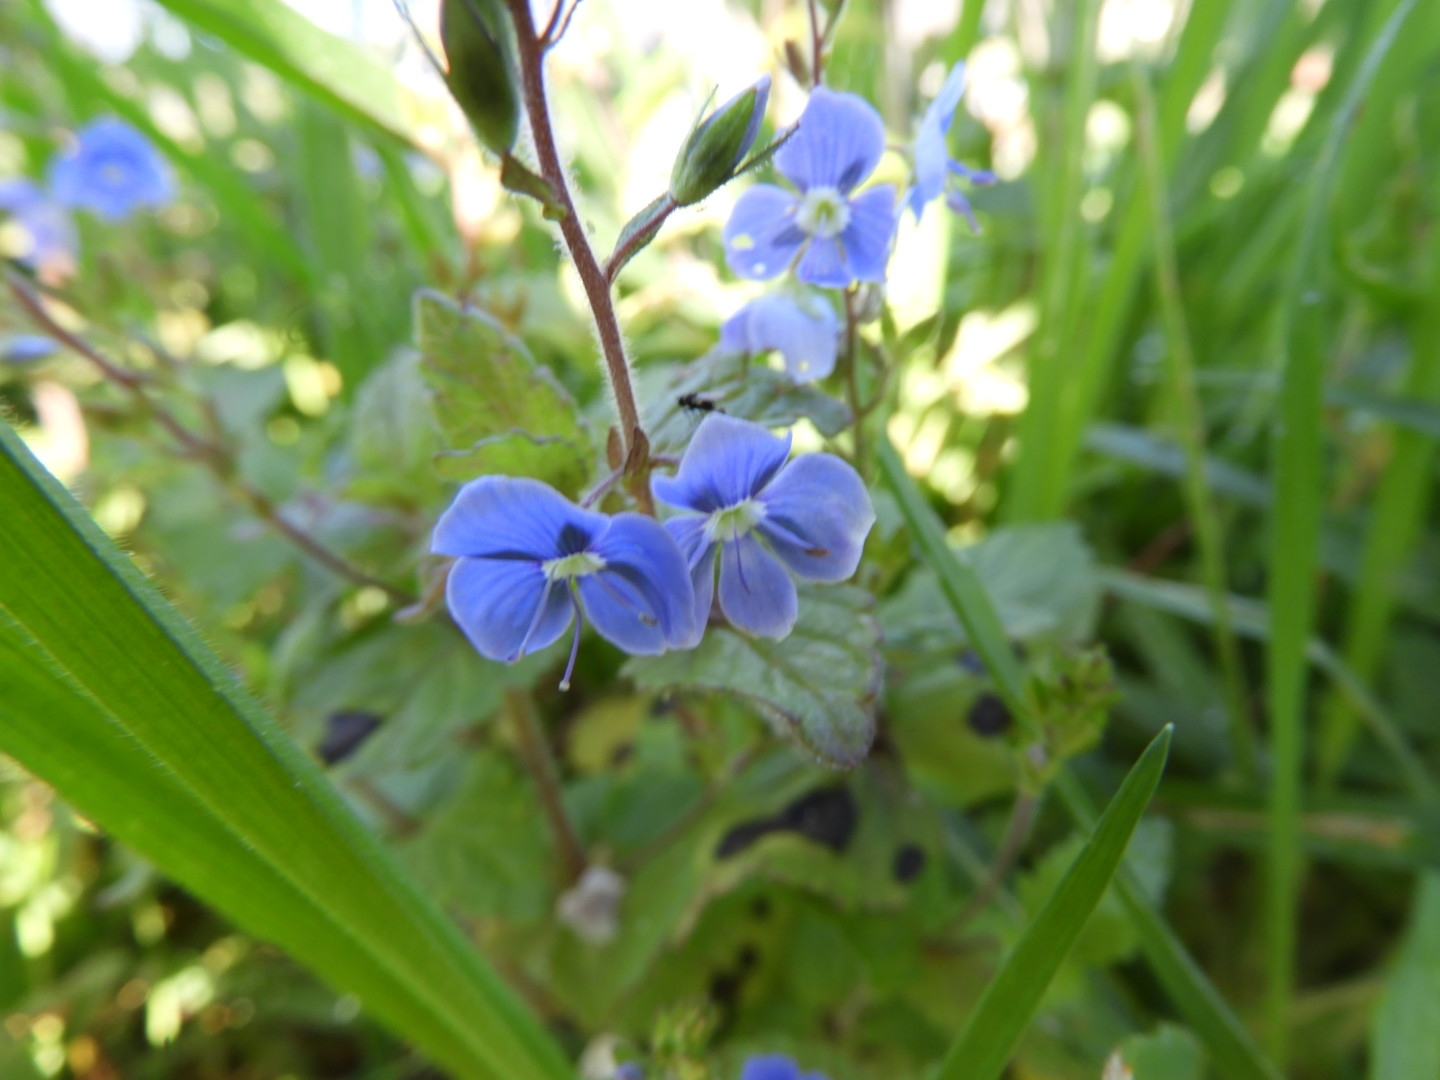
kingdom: Plantae
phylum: Tracheophyta
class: Magnoliopsida
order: Lamiales
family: Plantaginaceae
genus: Veronica
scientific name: Veronica chamaedrys
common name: Germander speedwell
